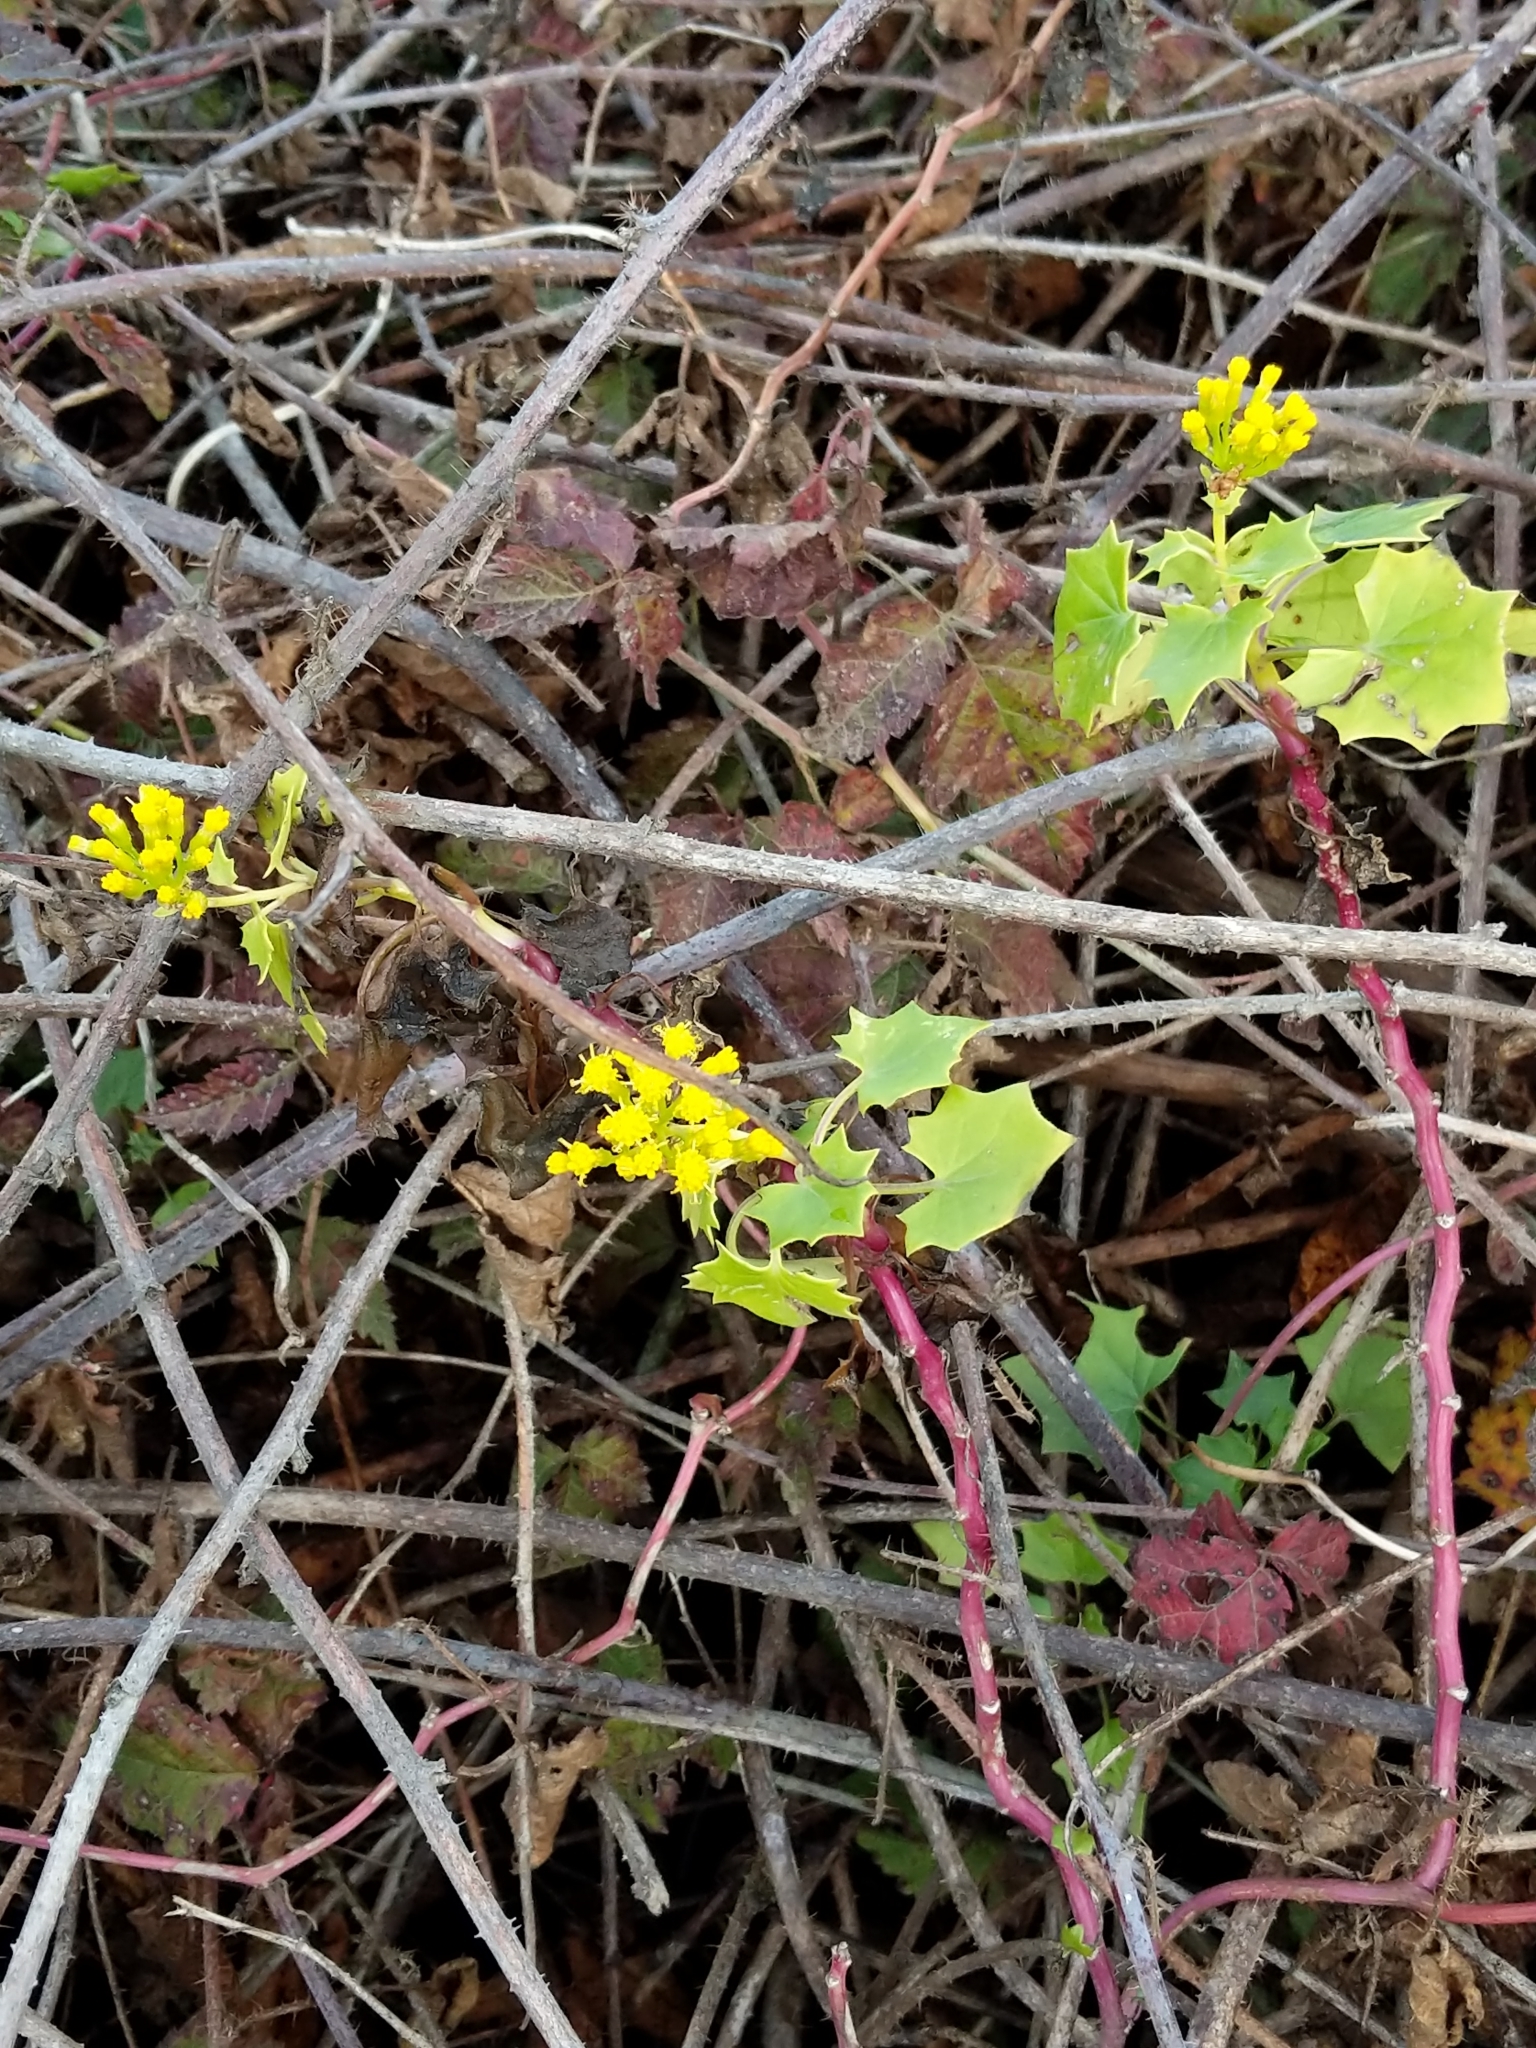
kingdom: Plantae
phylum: Tracheophyta
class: Magnoliopsida
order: Asterales
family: Asteraceae
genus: Delairea
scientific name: Delairea odorata
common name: Cape-ivy
